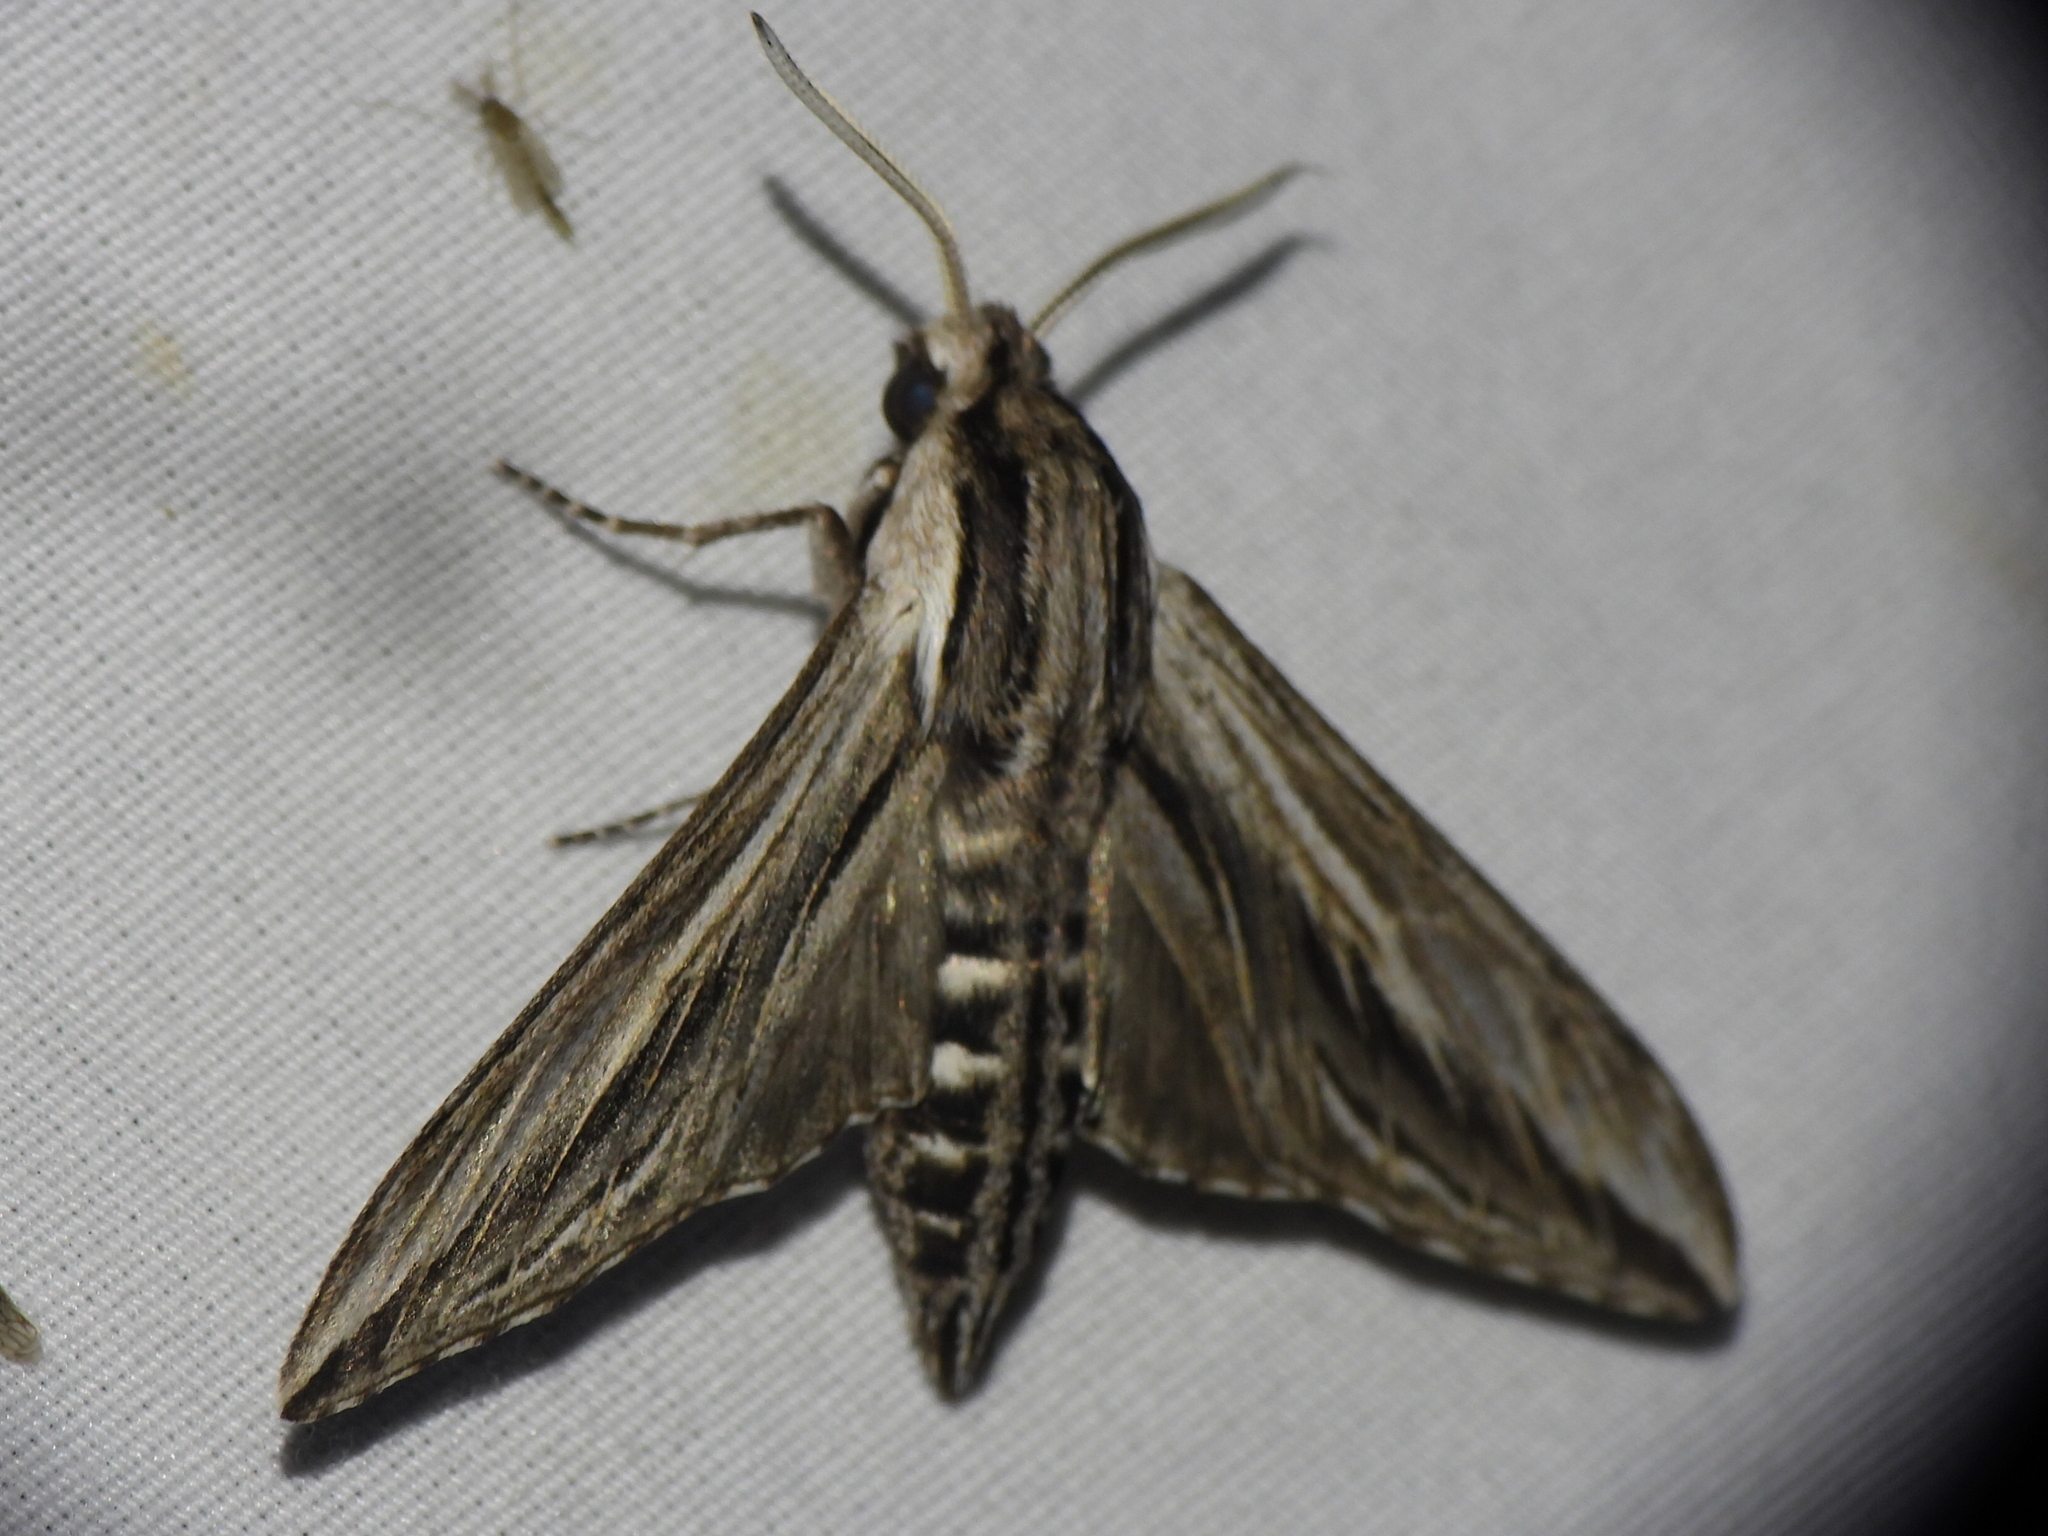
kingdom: Animalia
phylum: Arthropoda
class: Insecta
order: Lepidoptera
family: Sphingidae
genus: Sphinx
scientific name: Sphinx vanbuskirki
